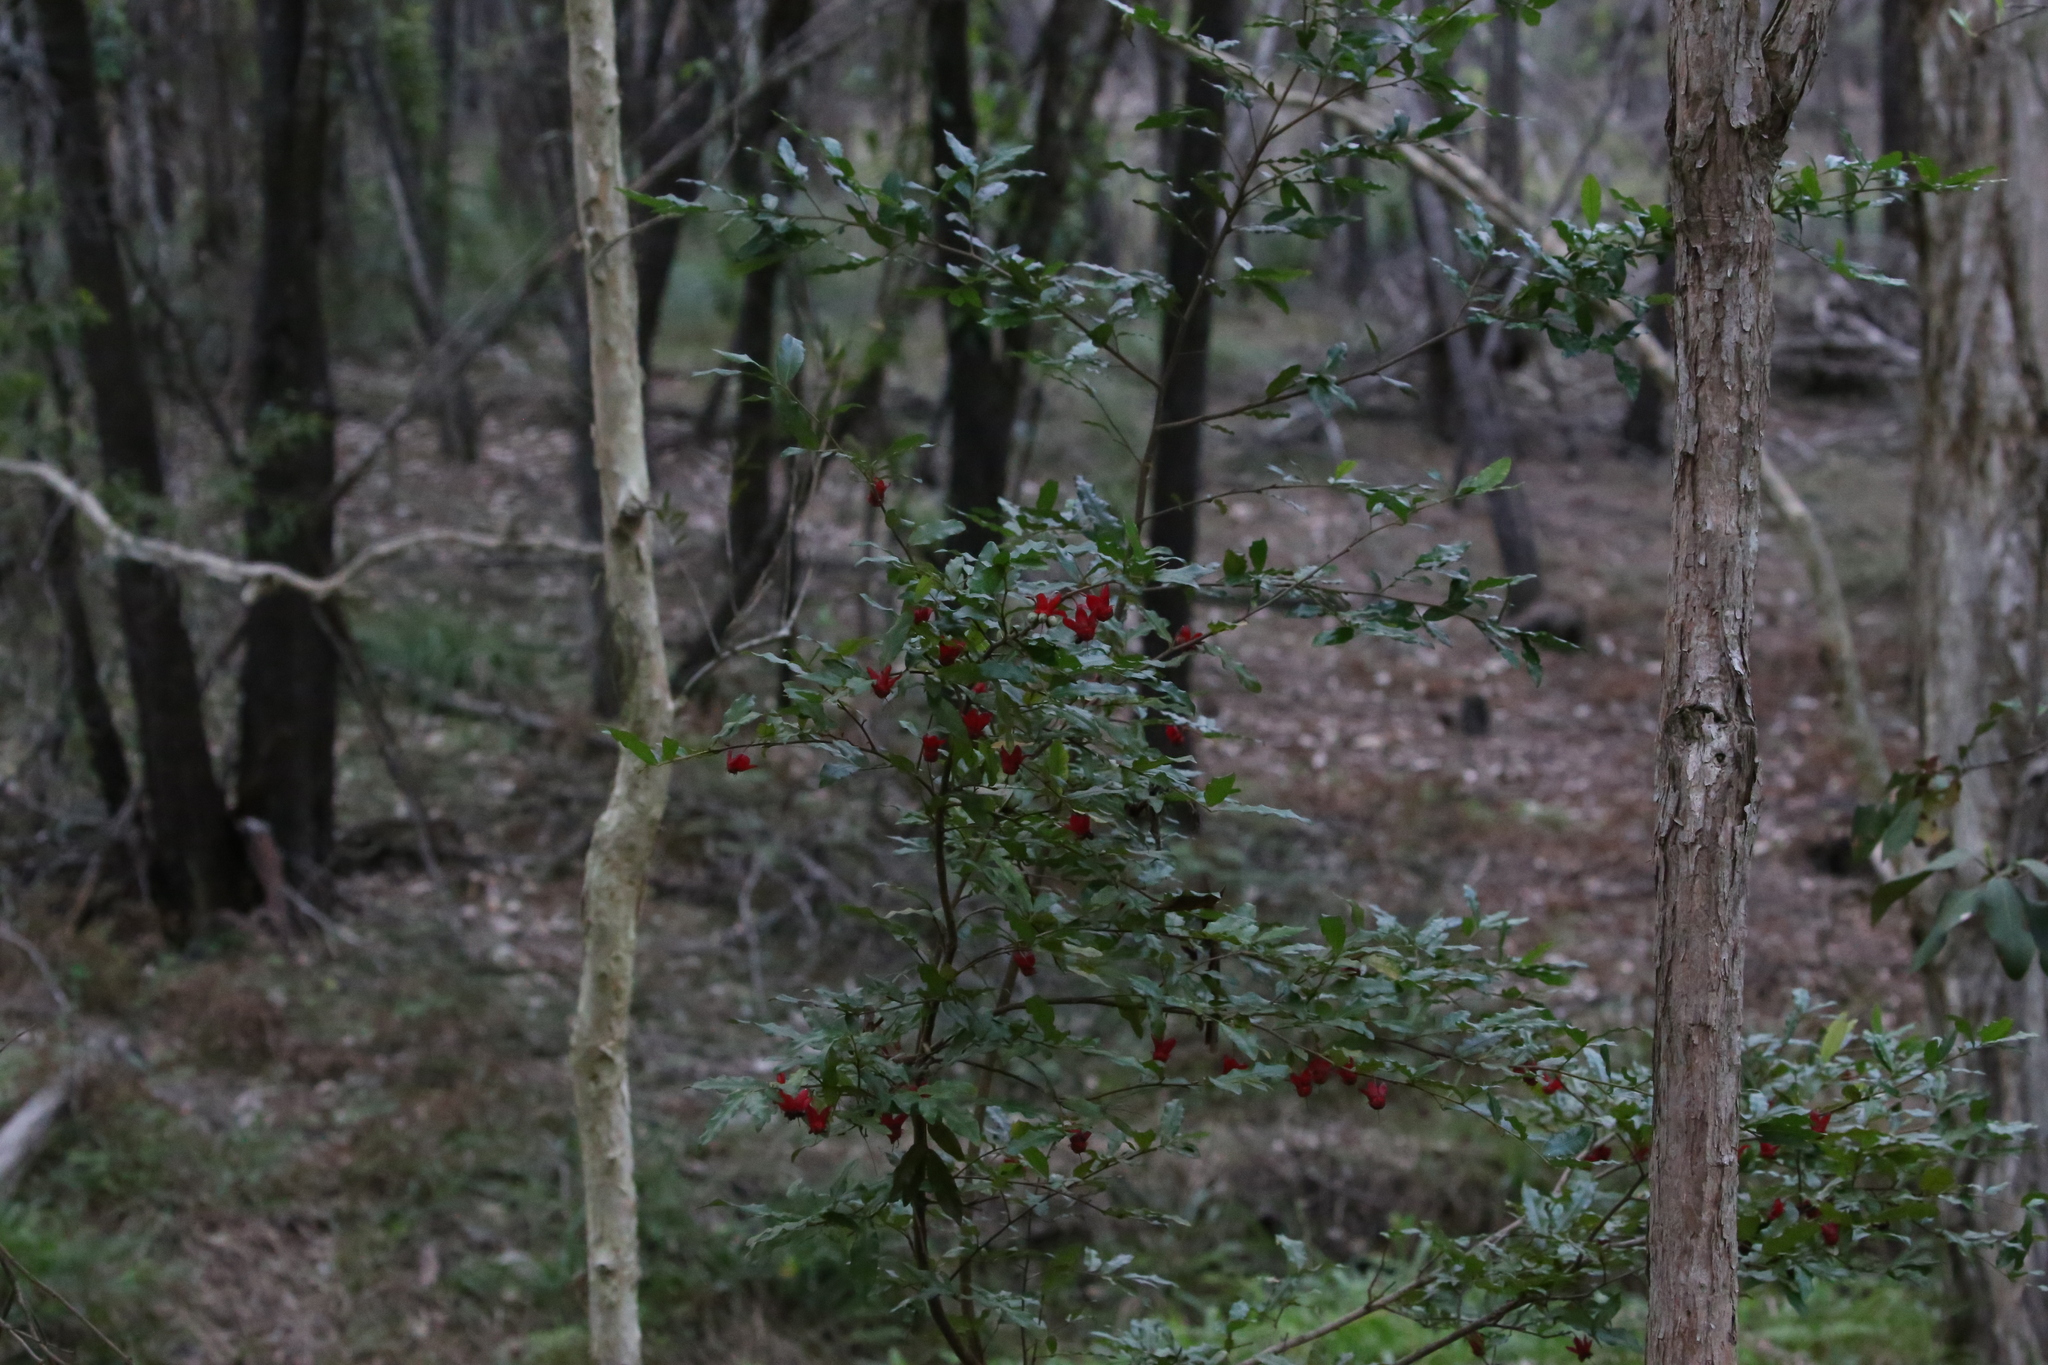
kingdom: Plantae
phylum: Tracheophyta
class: Magnoliopsida
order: Malpighiales
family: Ochnaceae
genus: Ochna
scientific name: Ochna serrulata
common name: Mickey mouse plant
